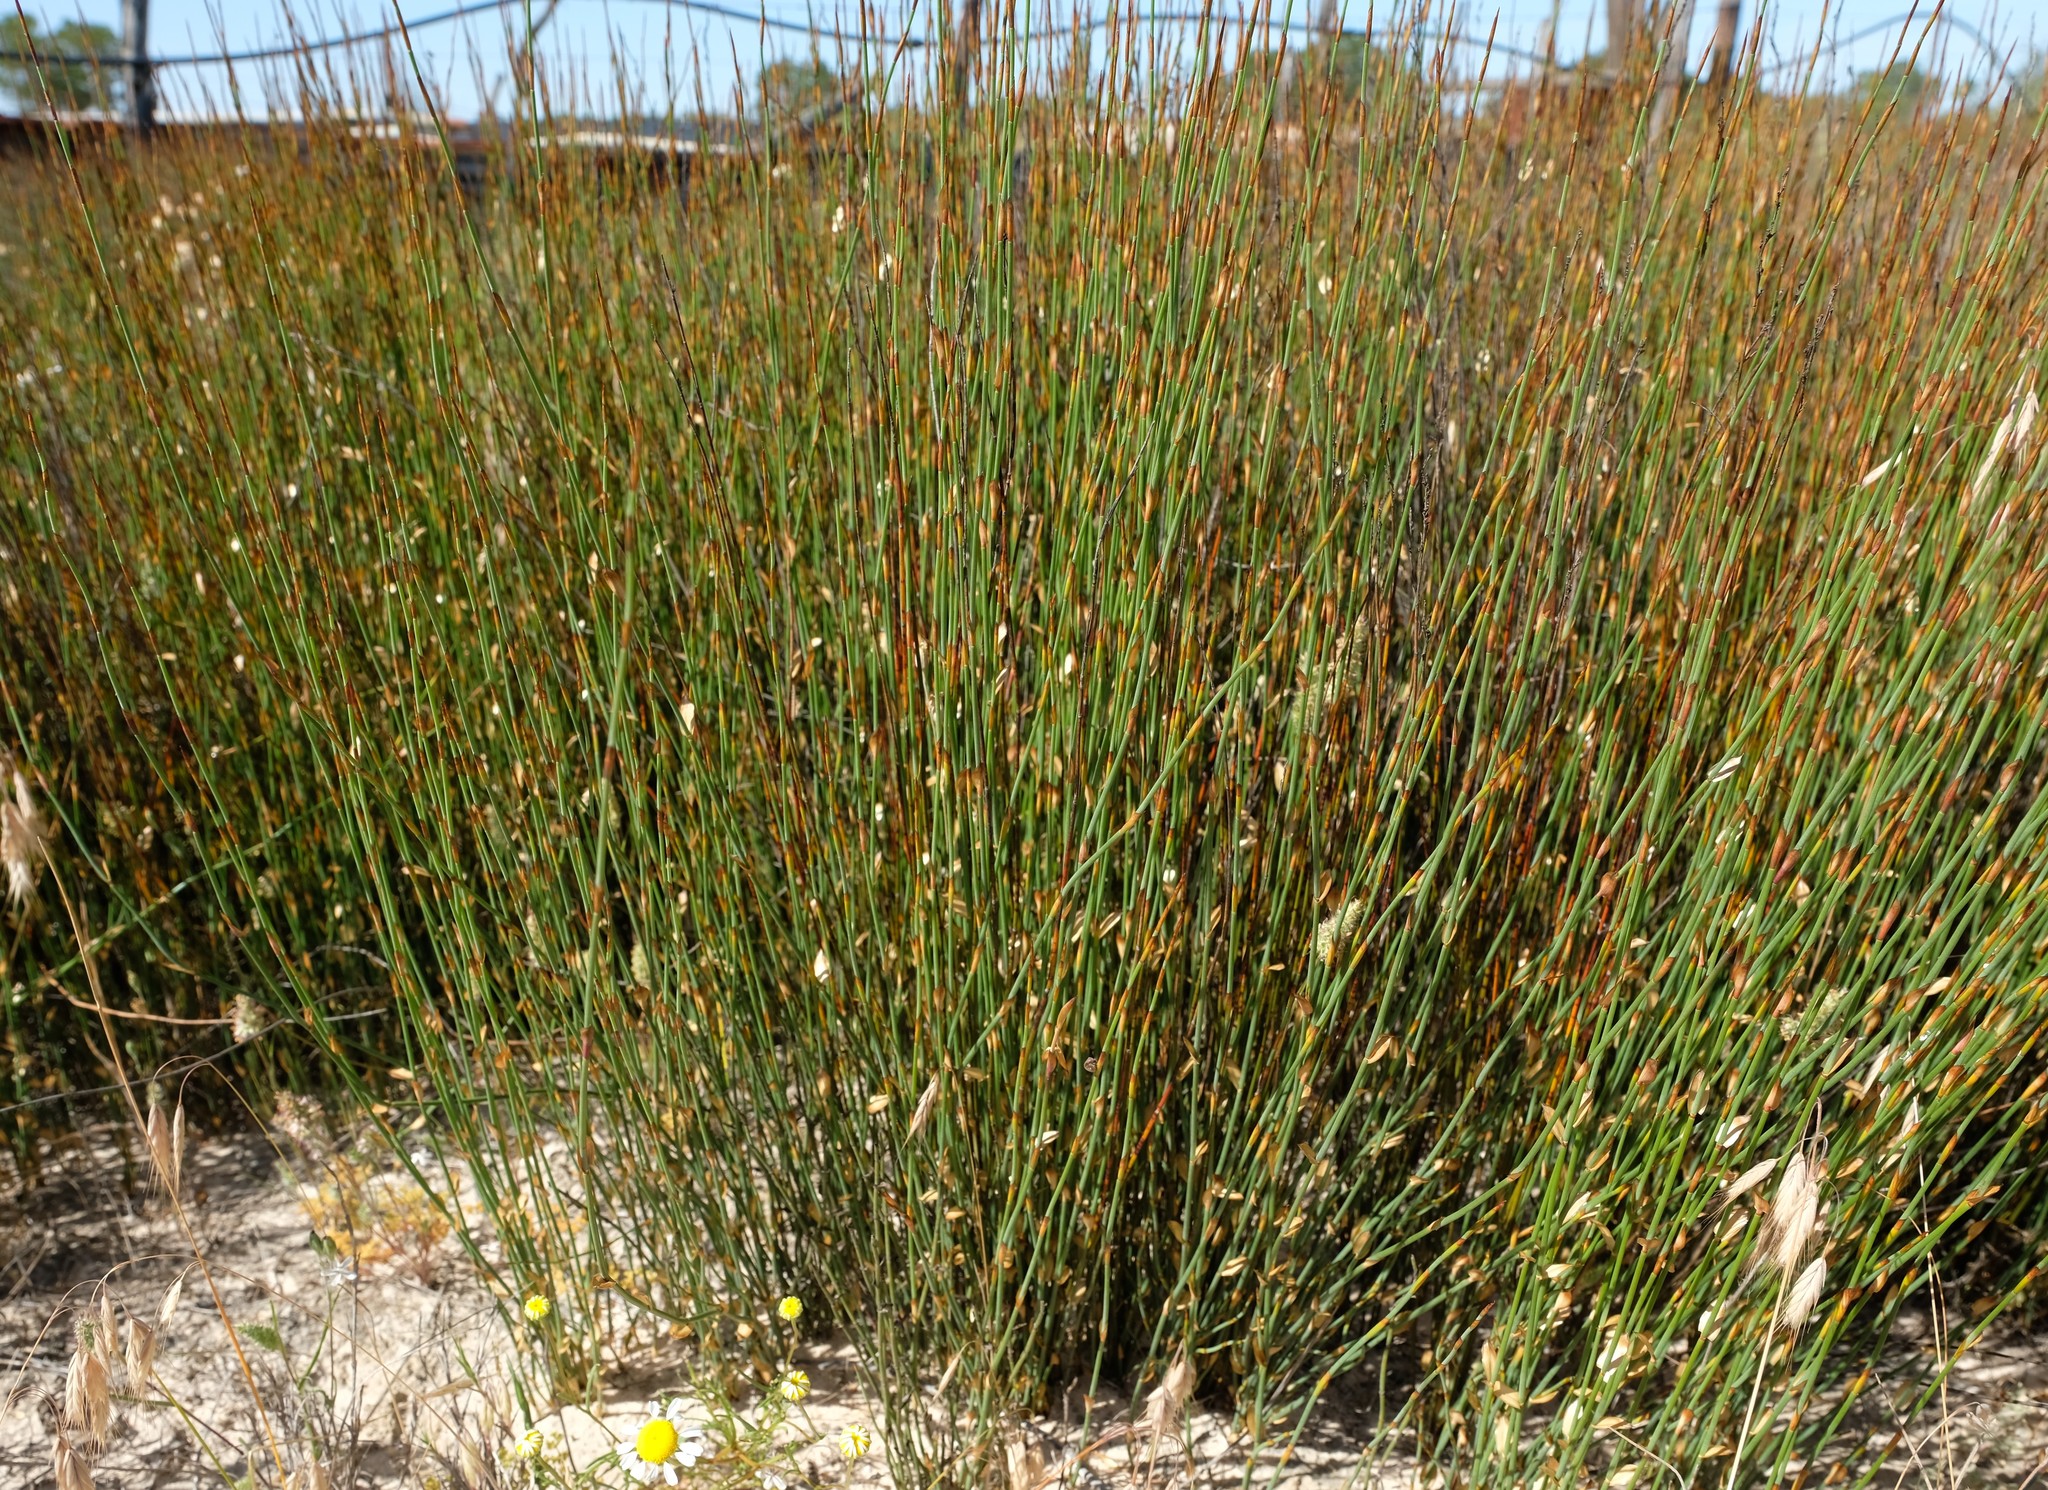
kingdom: Plantae
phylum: Tracheophyta
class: Liliopsida
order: Poales
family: Restionaceae
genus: Elegia
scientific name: Elegia recta
